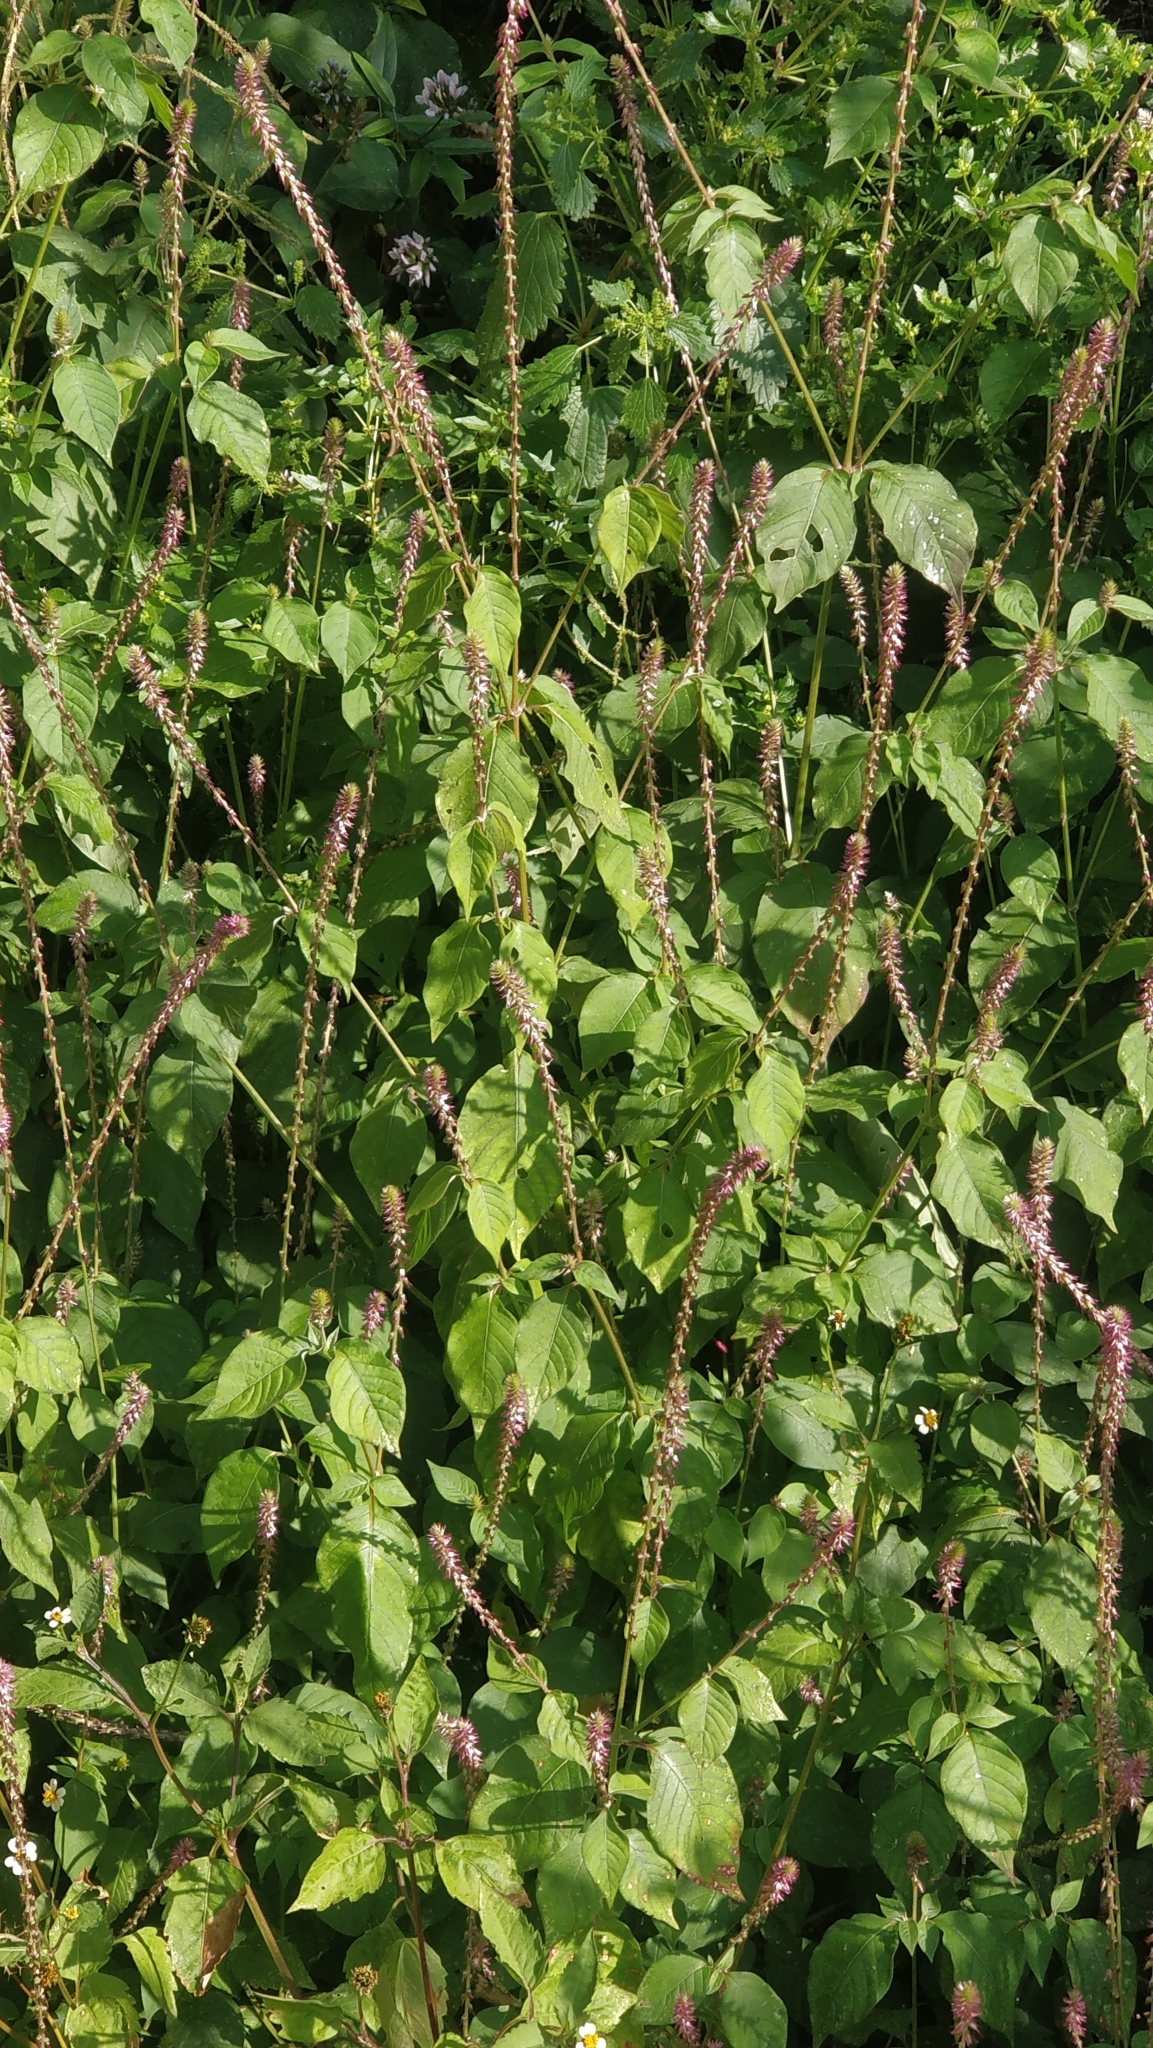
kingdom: Plantae
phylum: Tracheophyta
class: Magnoliopsida
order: Caryophyllales
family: Amaranthaceae
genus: Achyranthes
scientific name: Achyranthes aspera
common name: Devil's horsewhip
